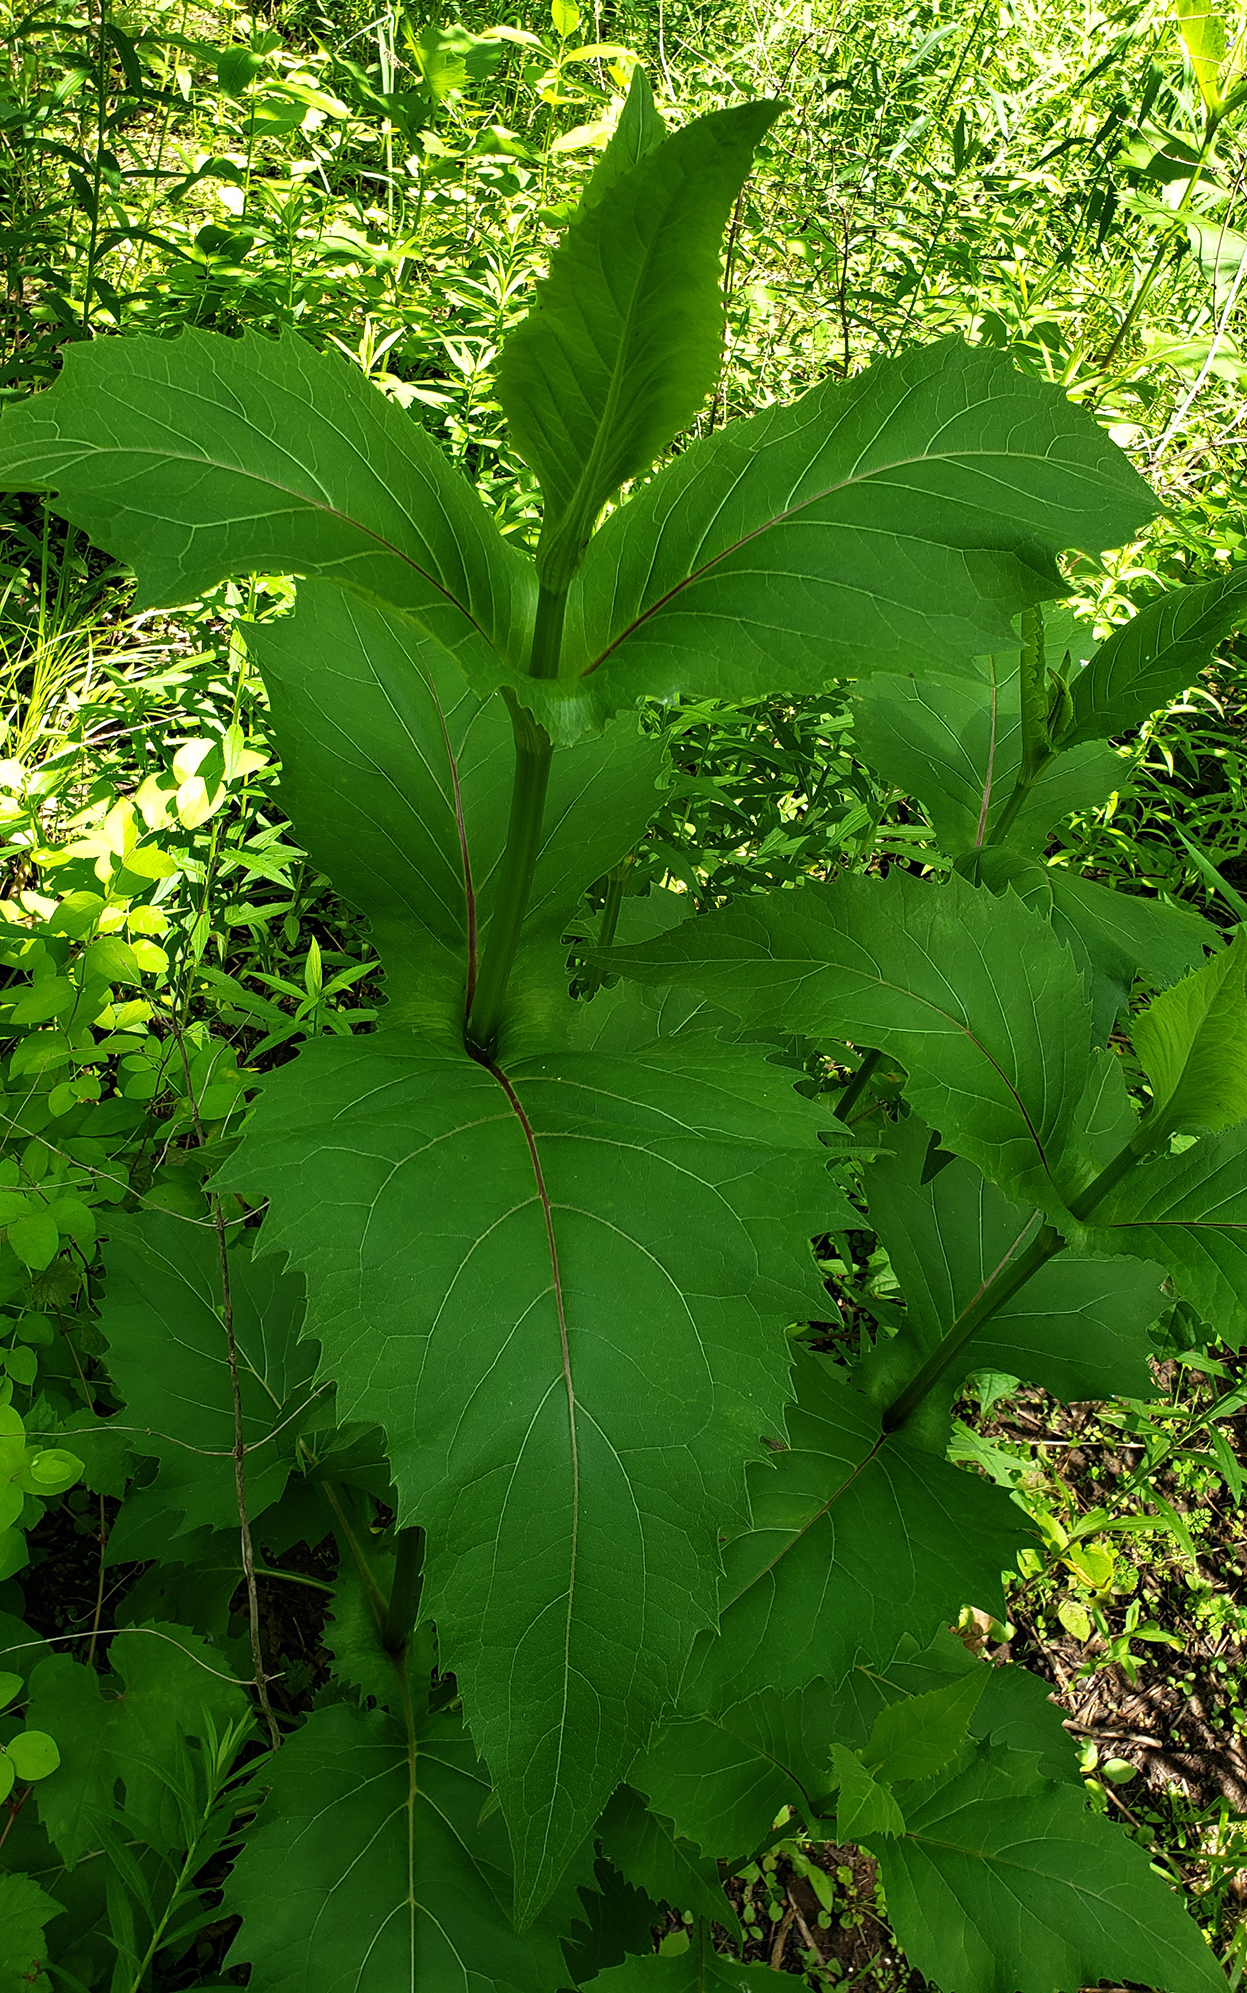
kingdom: Plantae
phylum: Tracheophyta
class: Magnoliopsida
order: Asterales
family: Asteraceae
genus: Silphium
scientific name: Silphium perfoliatum
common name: Cup-plant
